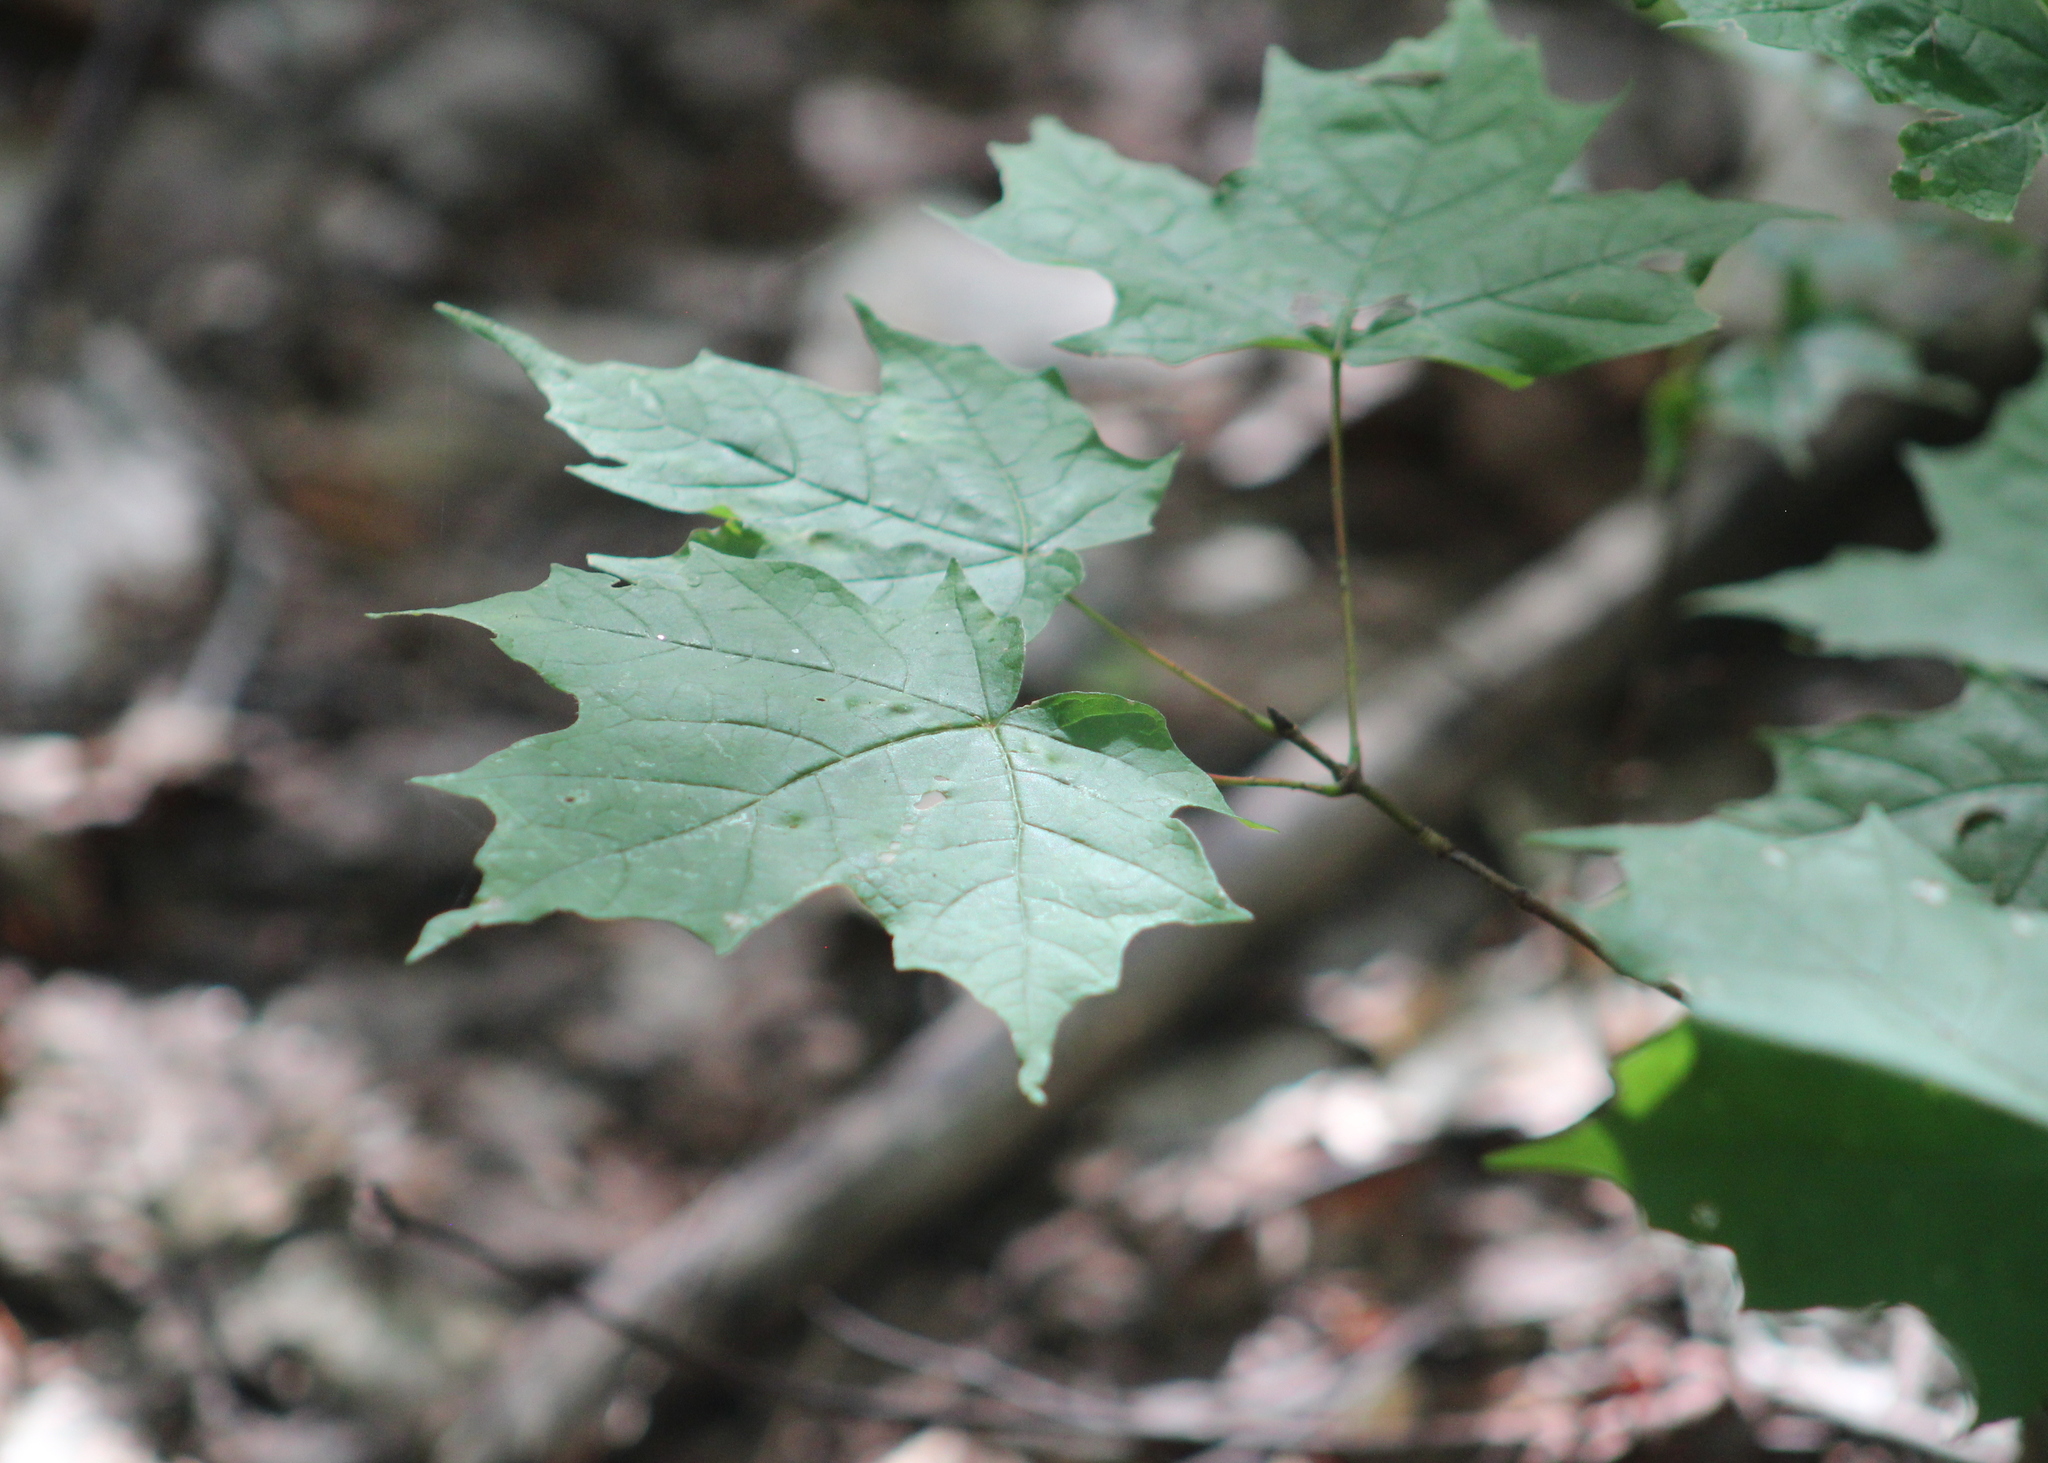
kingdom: Plantae
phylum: Tracheophyta
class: Magnoliopsida
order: Sapindales
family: Sapindaceae
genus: Acer
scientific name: Acer saccharum
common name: Sugar maple
